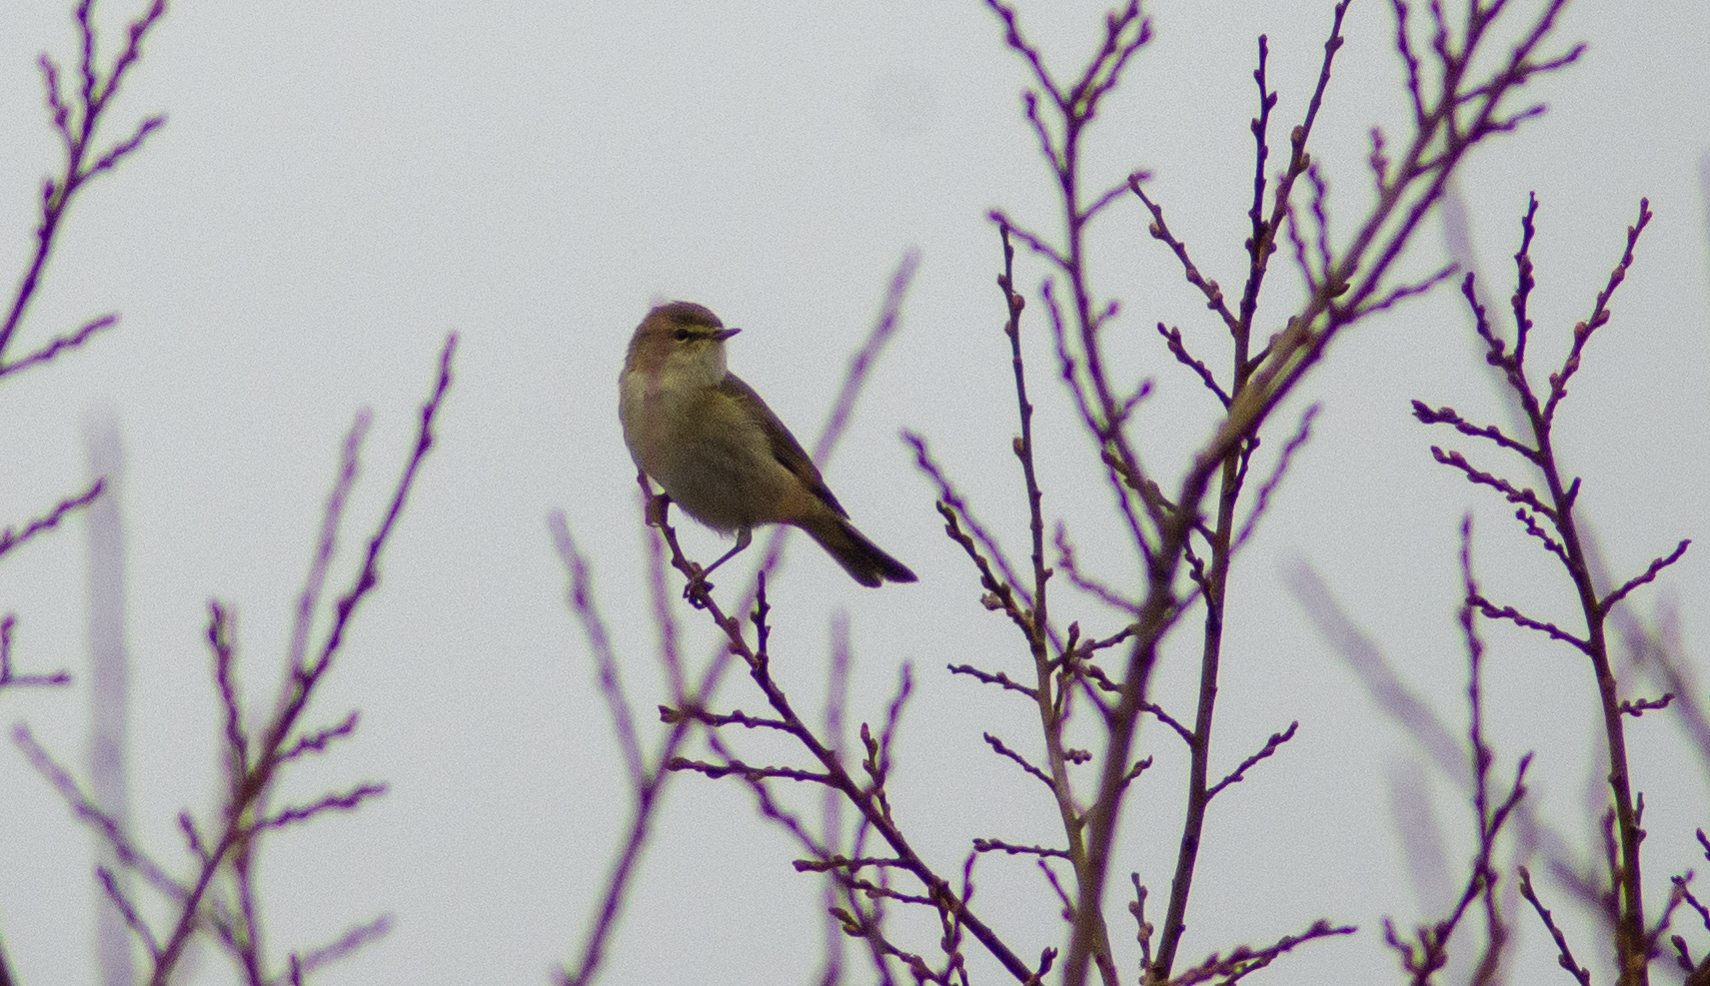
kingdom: Animalia
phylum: Chordata
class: Aves
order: Passeriformes
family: Phylloscopidae
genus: Phylloscopus
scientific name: Phylloscopus collybita
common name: Common chiffchaff
